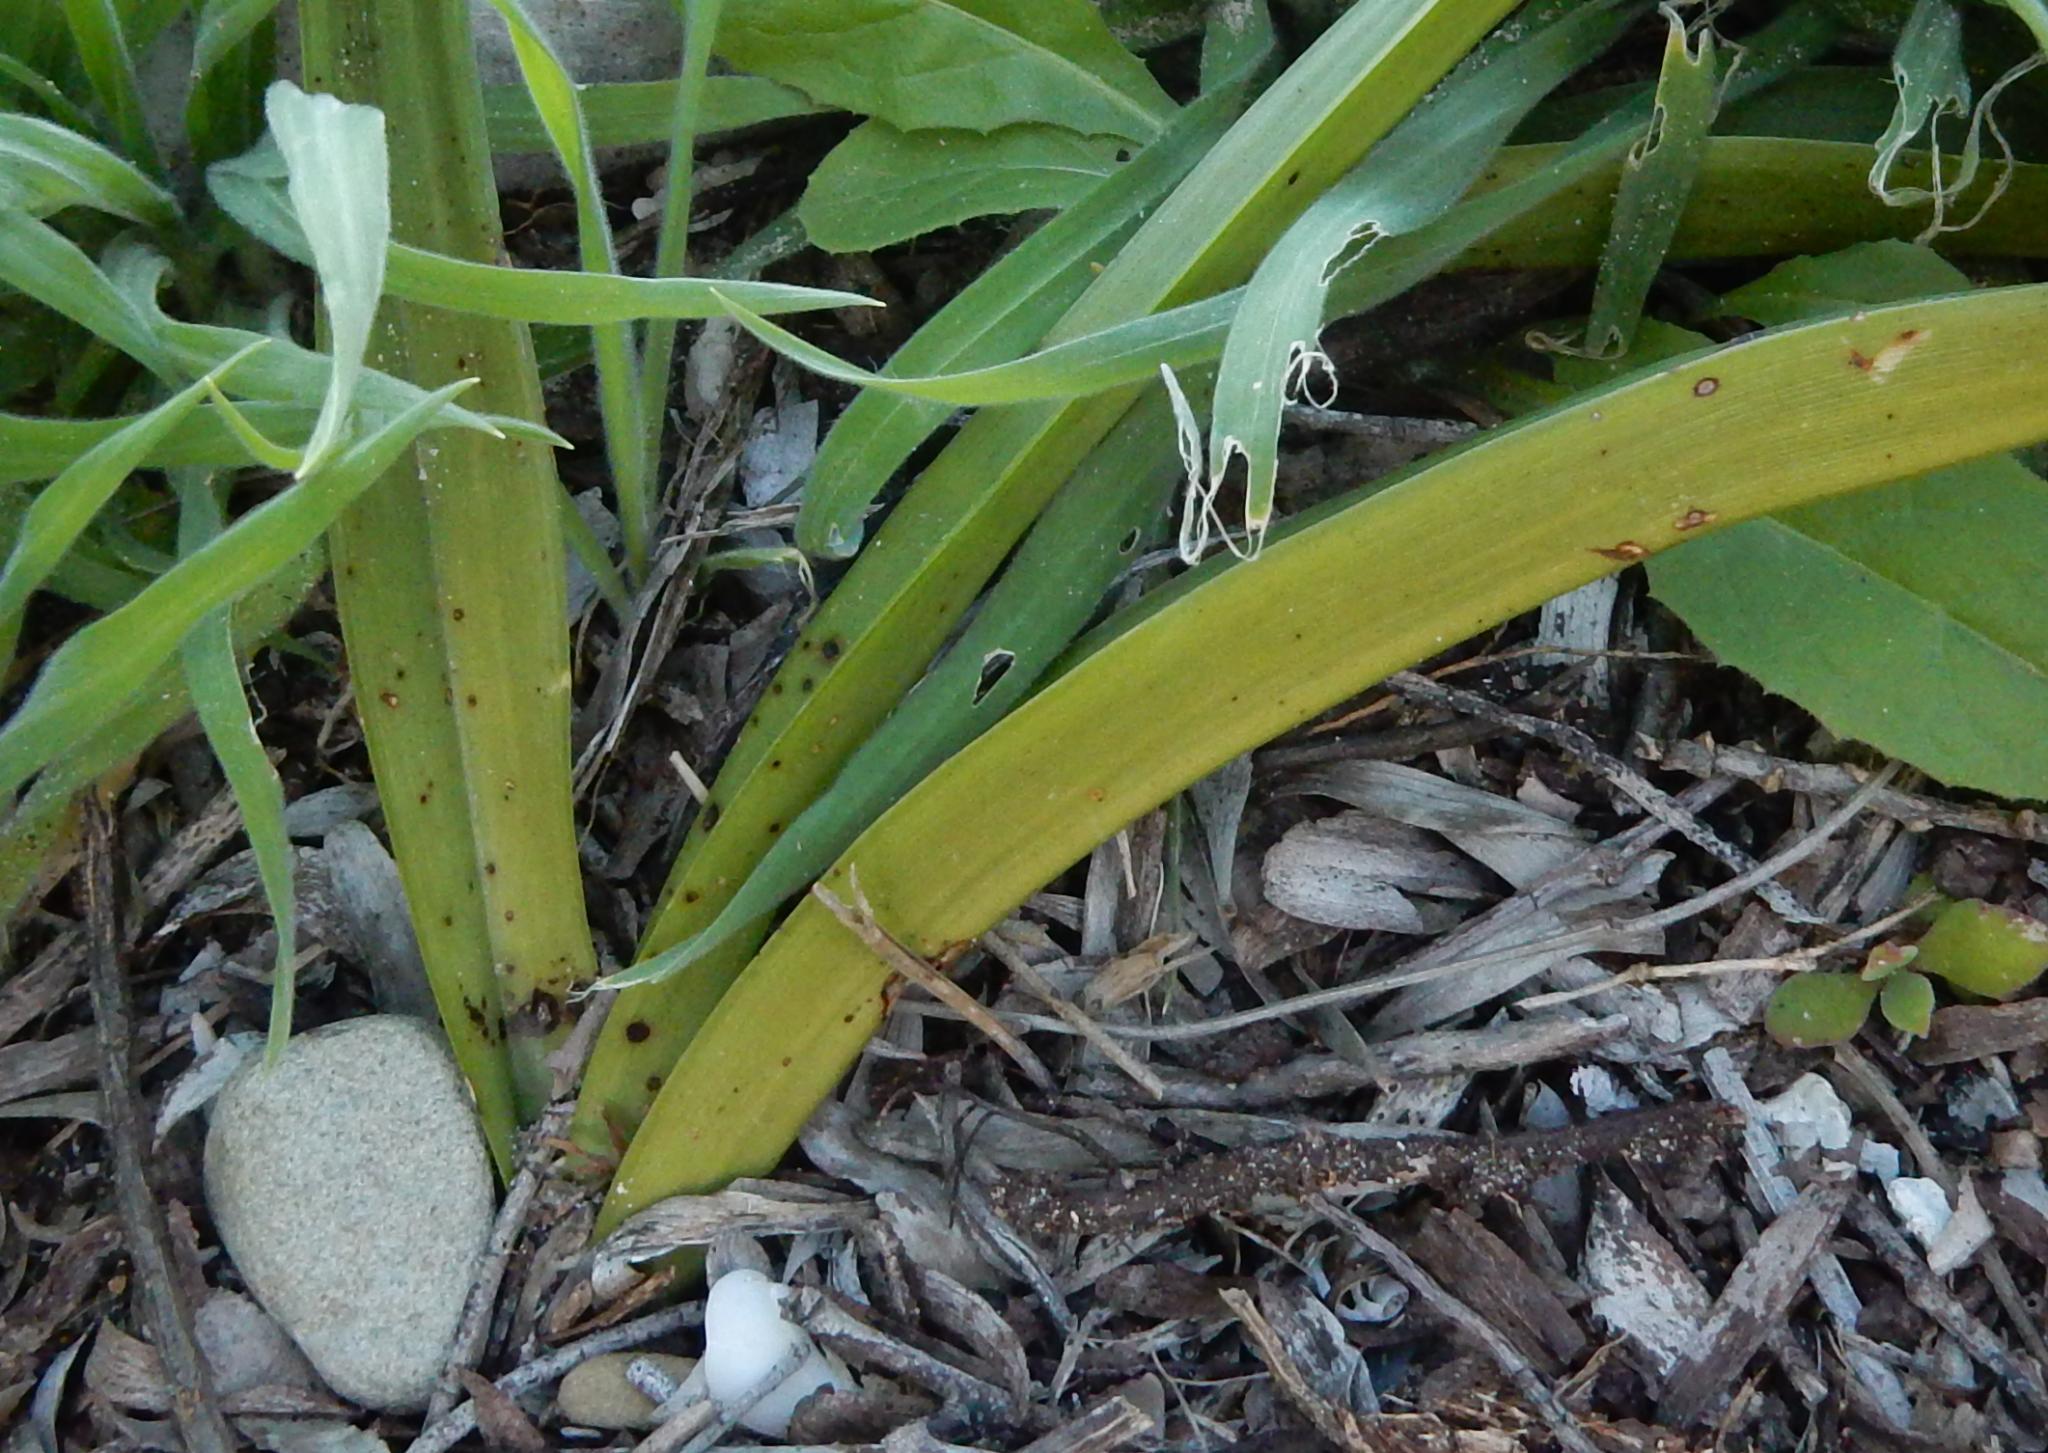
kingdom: Plantae
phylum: Tracheophyta
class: Liliopsida
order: Asparagales
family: Orchidaceae
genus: Eulophia
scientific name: Eulophia speciosa
